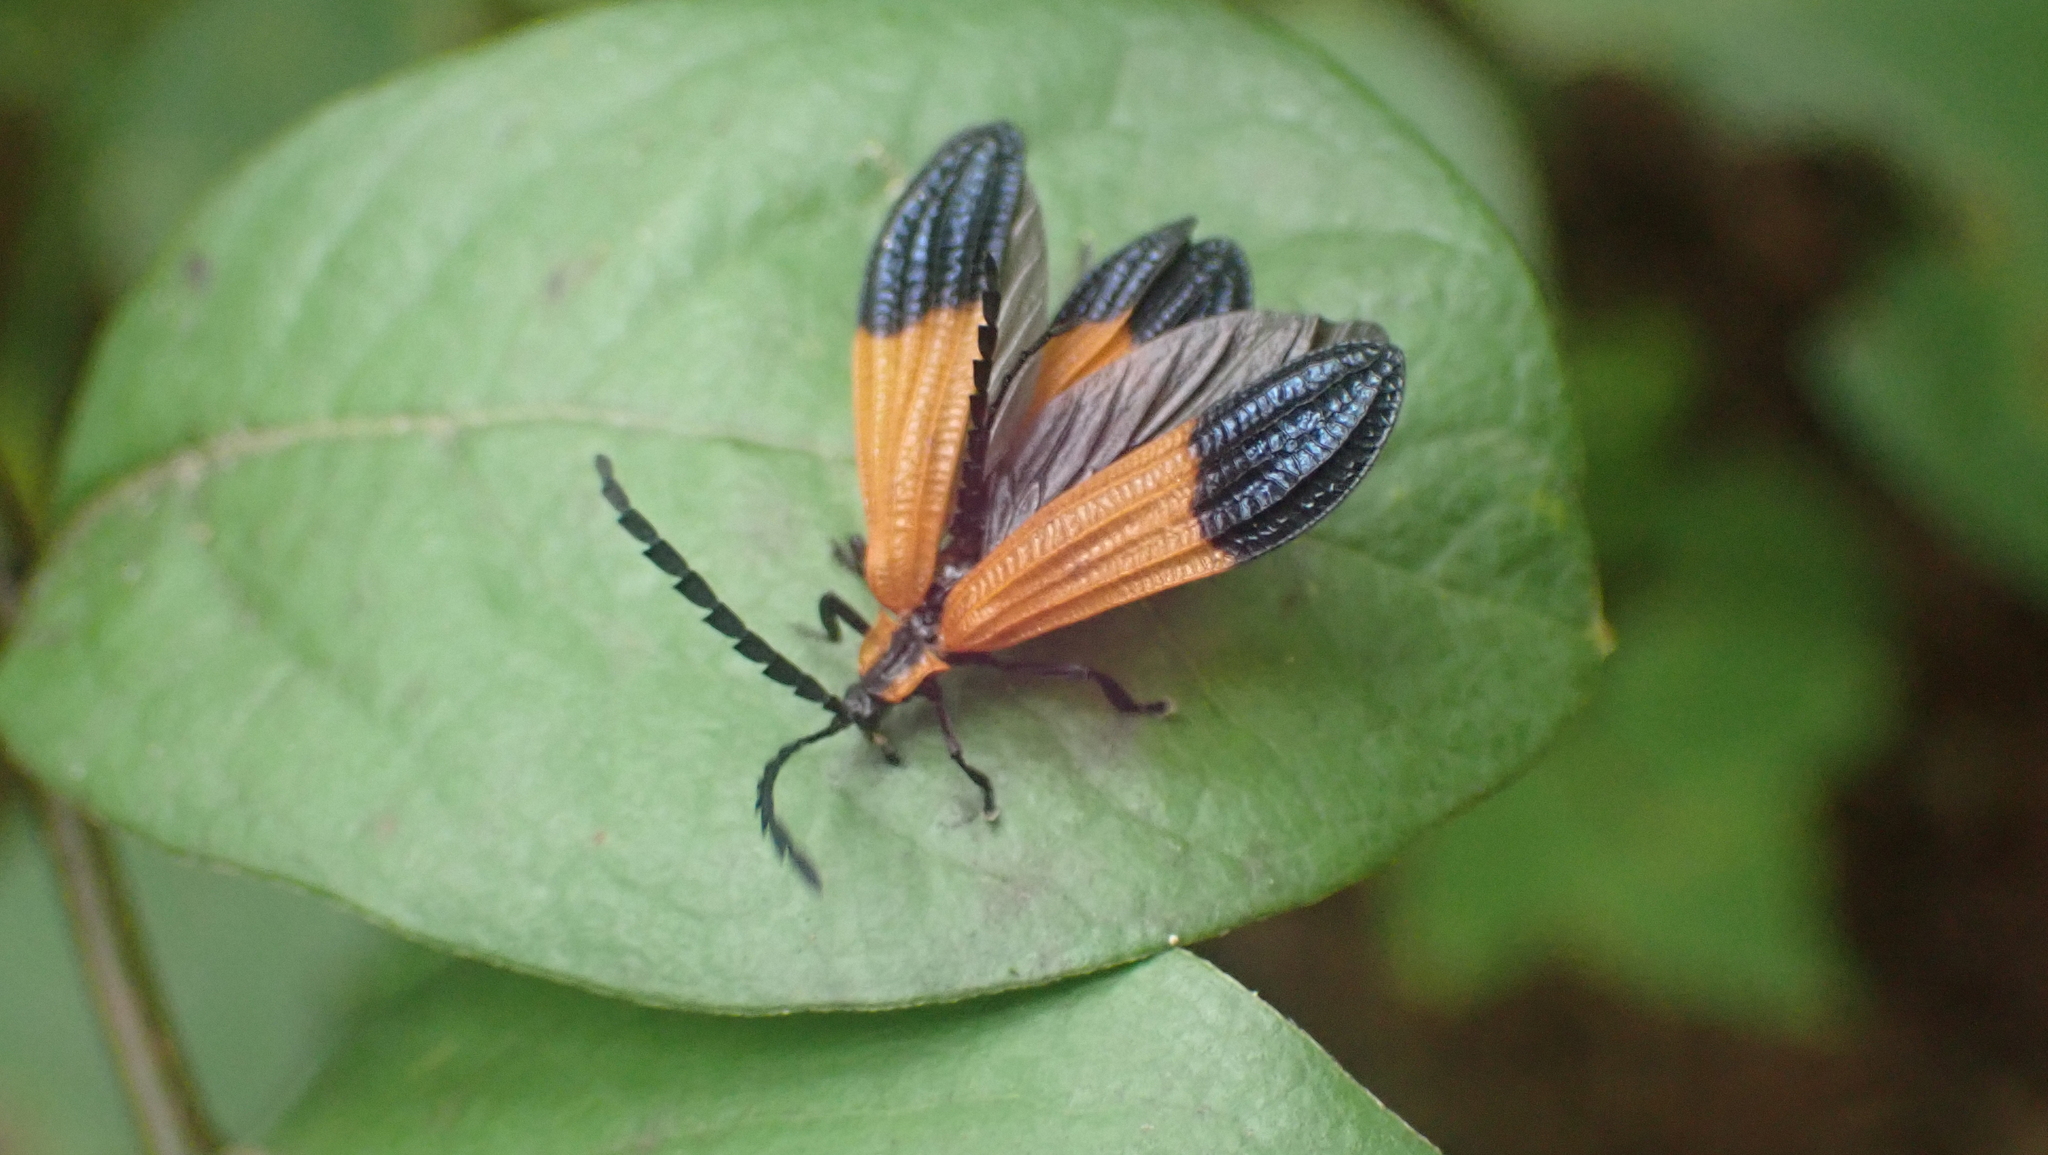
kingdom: Animalia
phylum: Arthropoda
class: Insecta
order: Coleoptera
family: Lycidae
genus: Calopteron
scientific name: Calopteron terminale
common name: End band net-winged beetle
